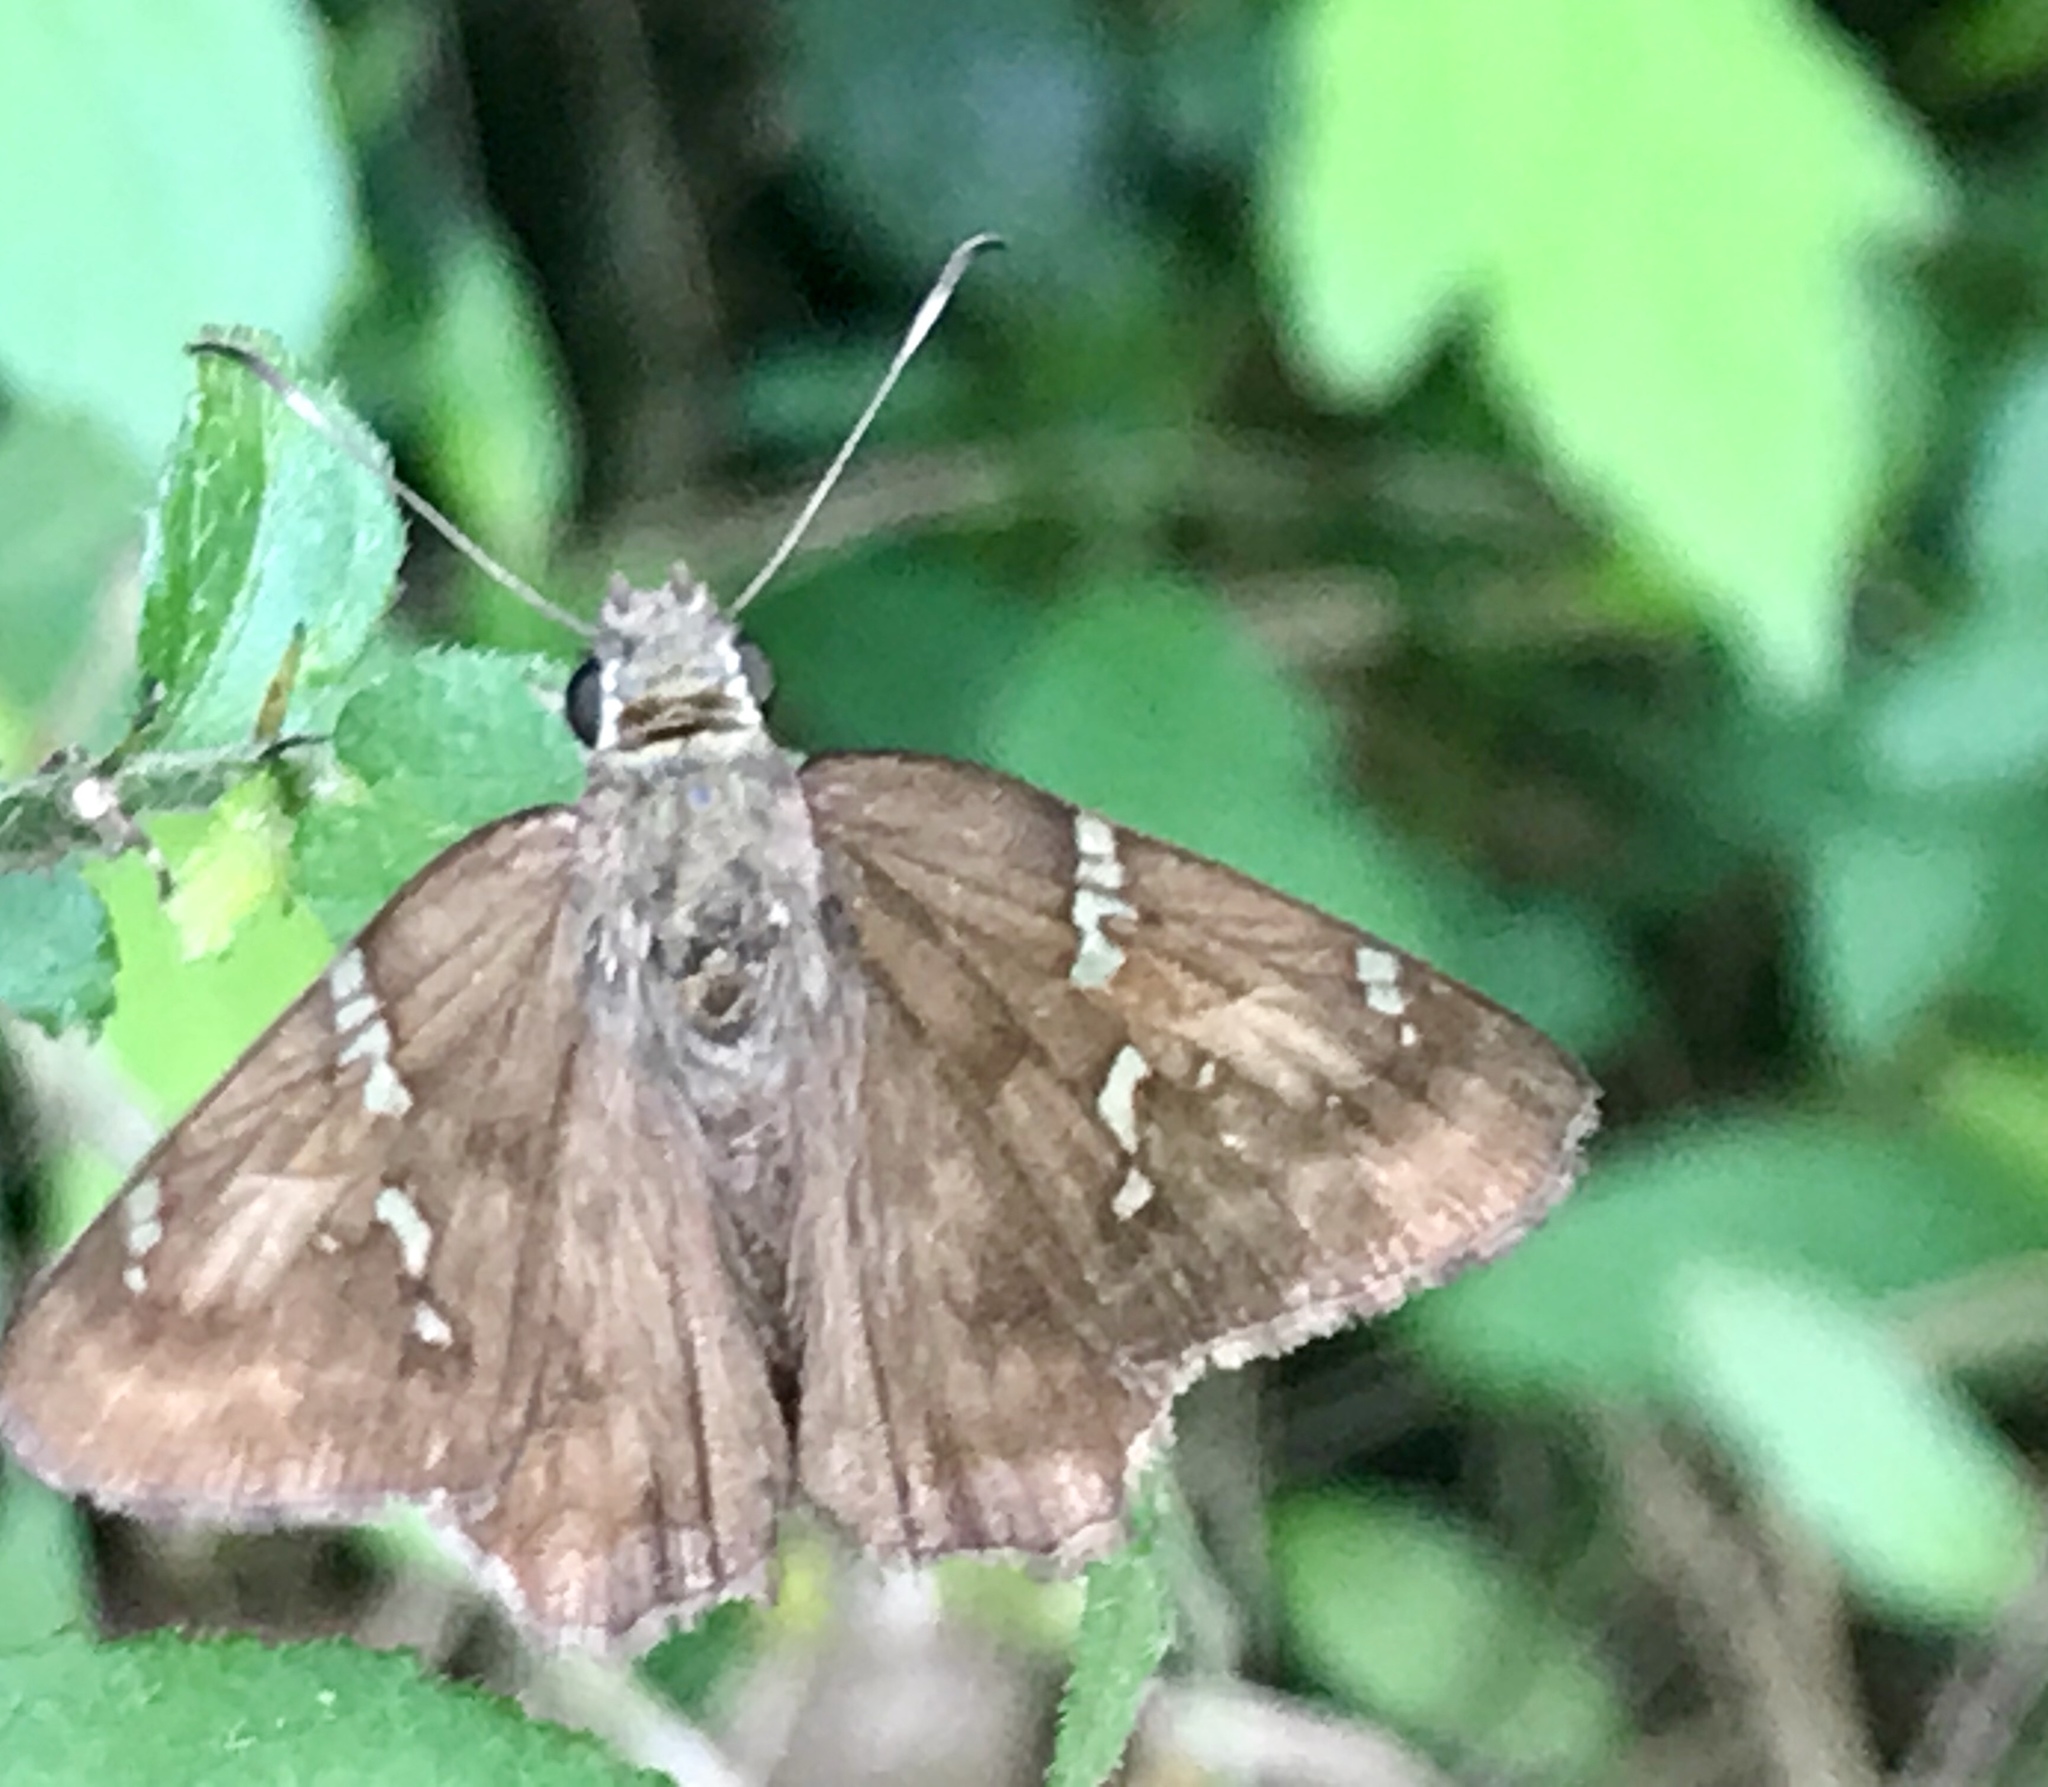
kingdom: Animalia
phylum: Arthropoda
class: Insecta
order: Lepidoptera
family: Hesperiidae
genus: Autochton
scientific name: Autochton potrillo
